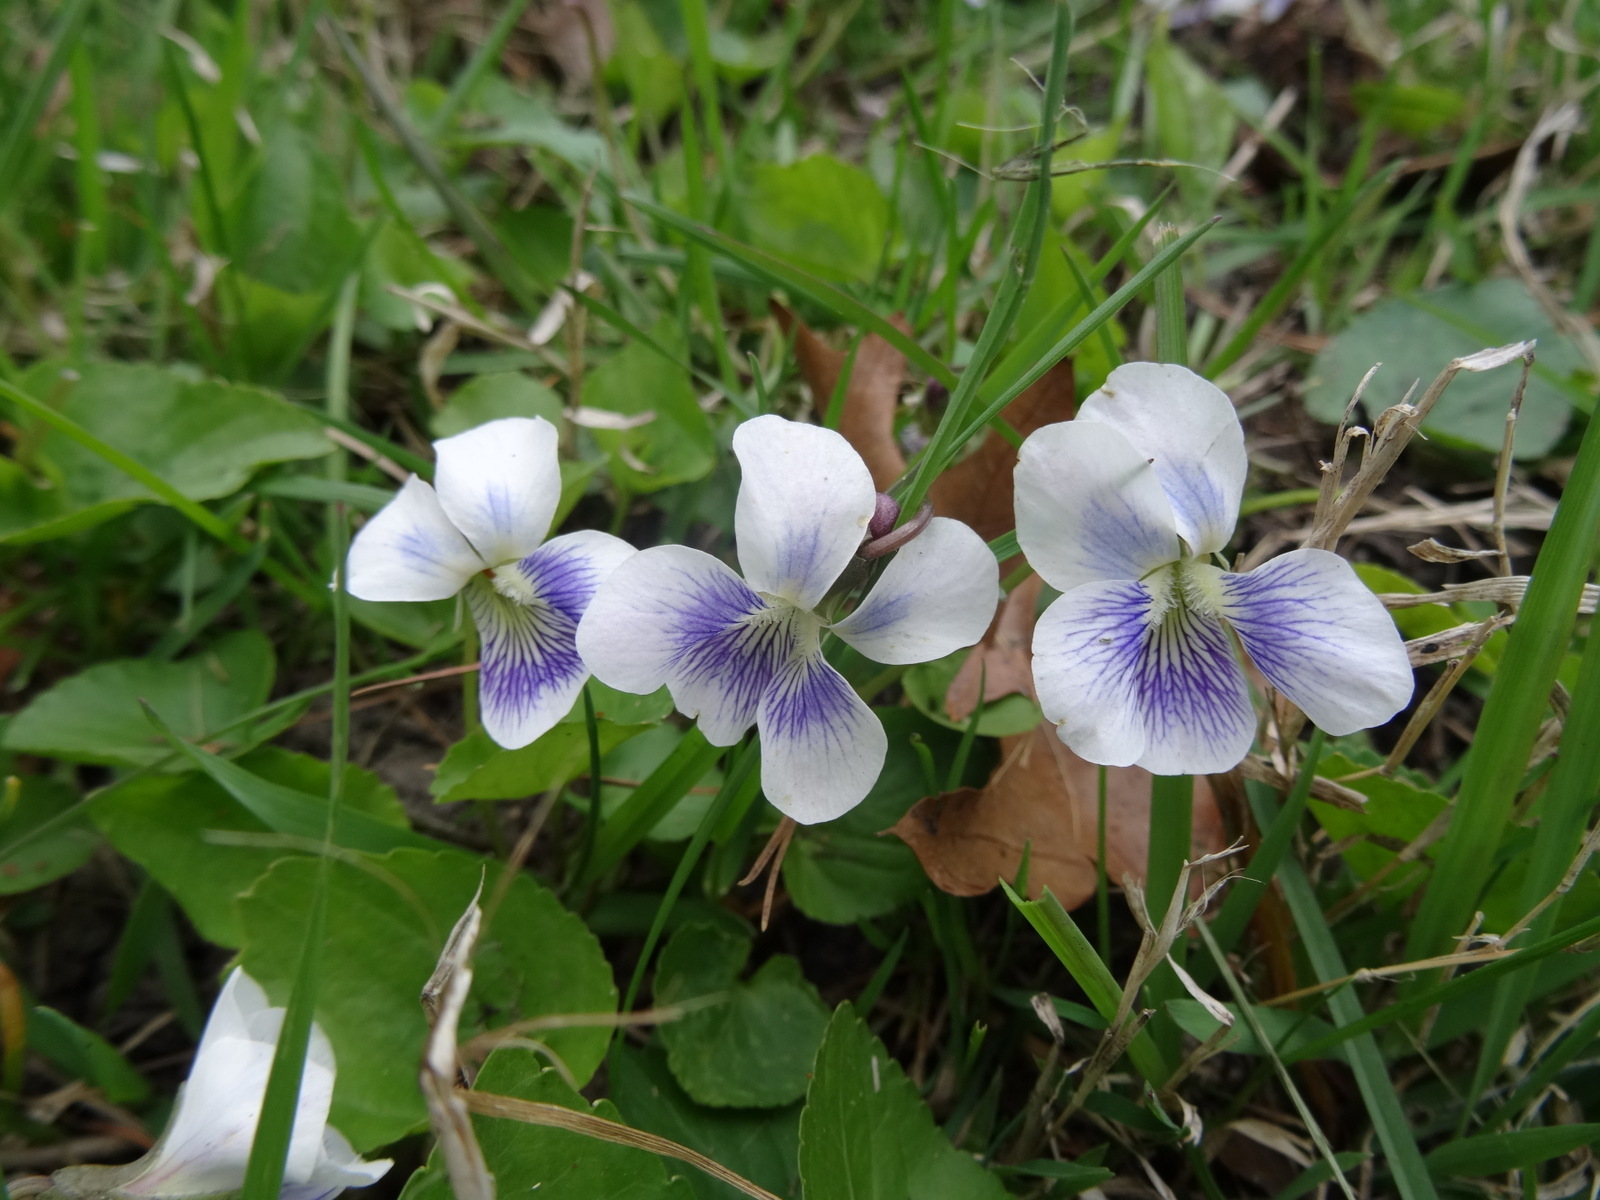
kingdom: Plantae
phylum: Tracheophyta
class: Magnoliopsida
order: Malpighiales
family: Violaceae
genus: Viola
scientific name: Viola sororia
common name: Dooryard violet
